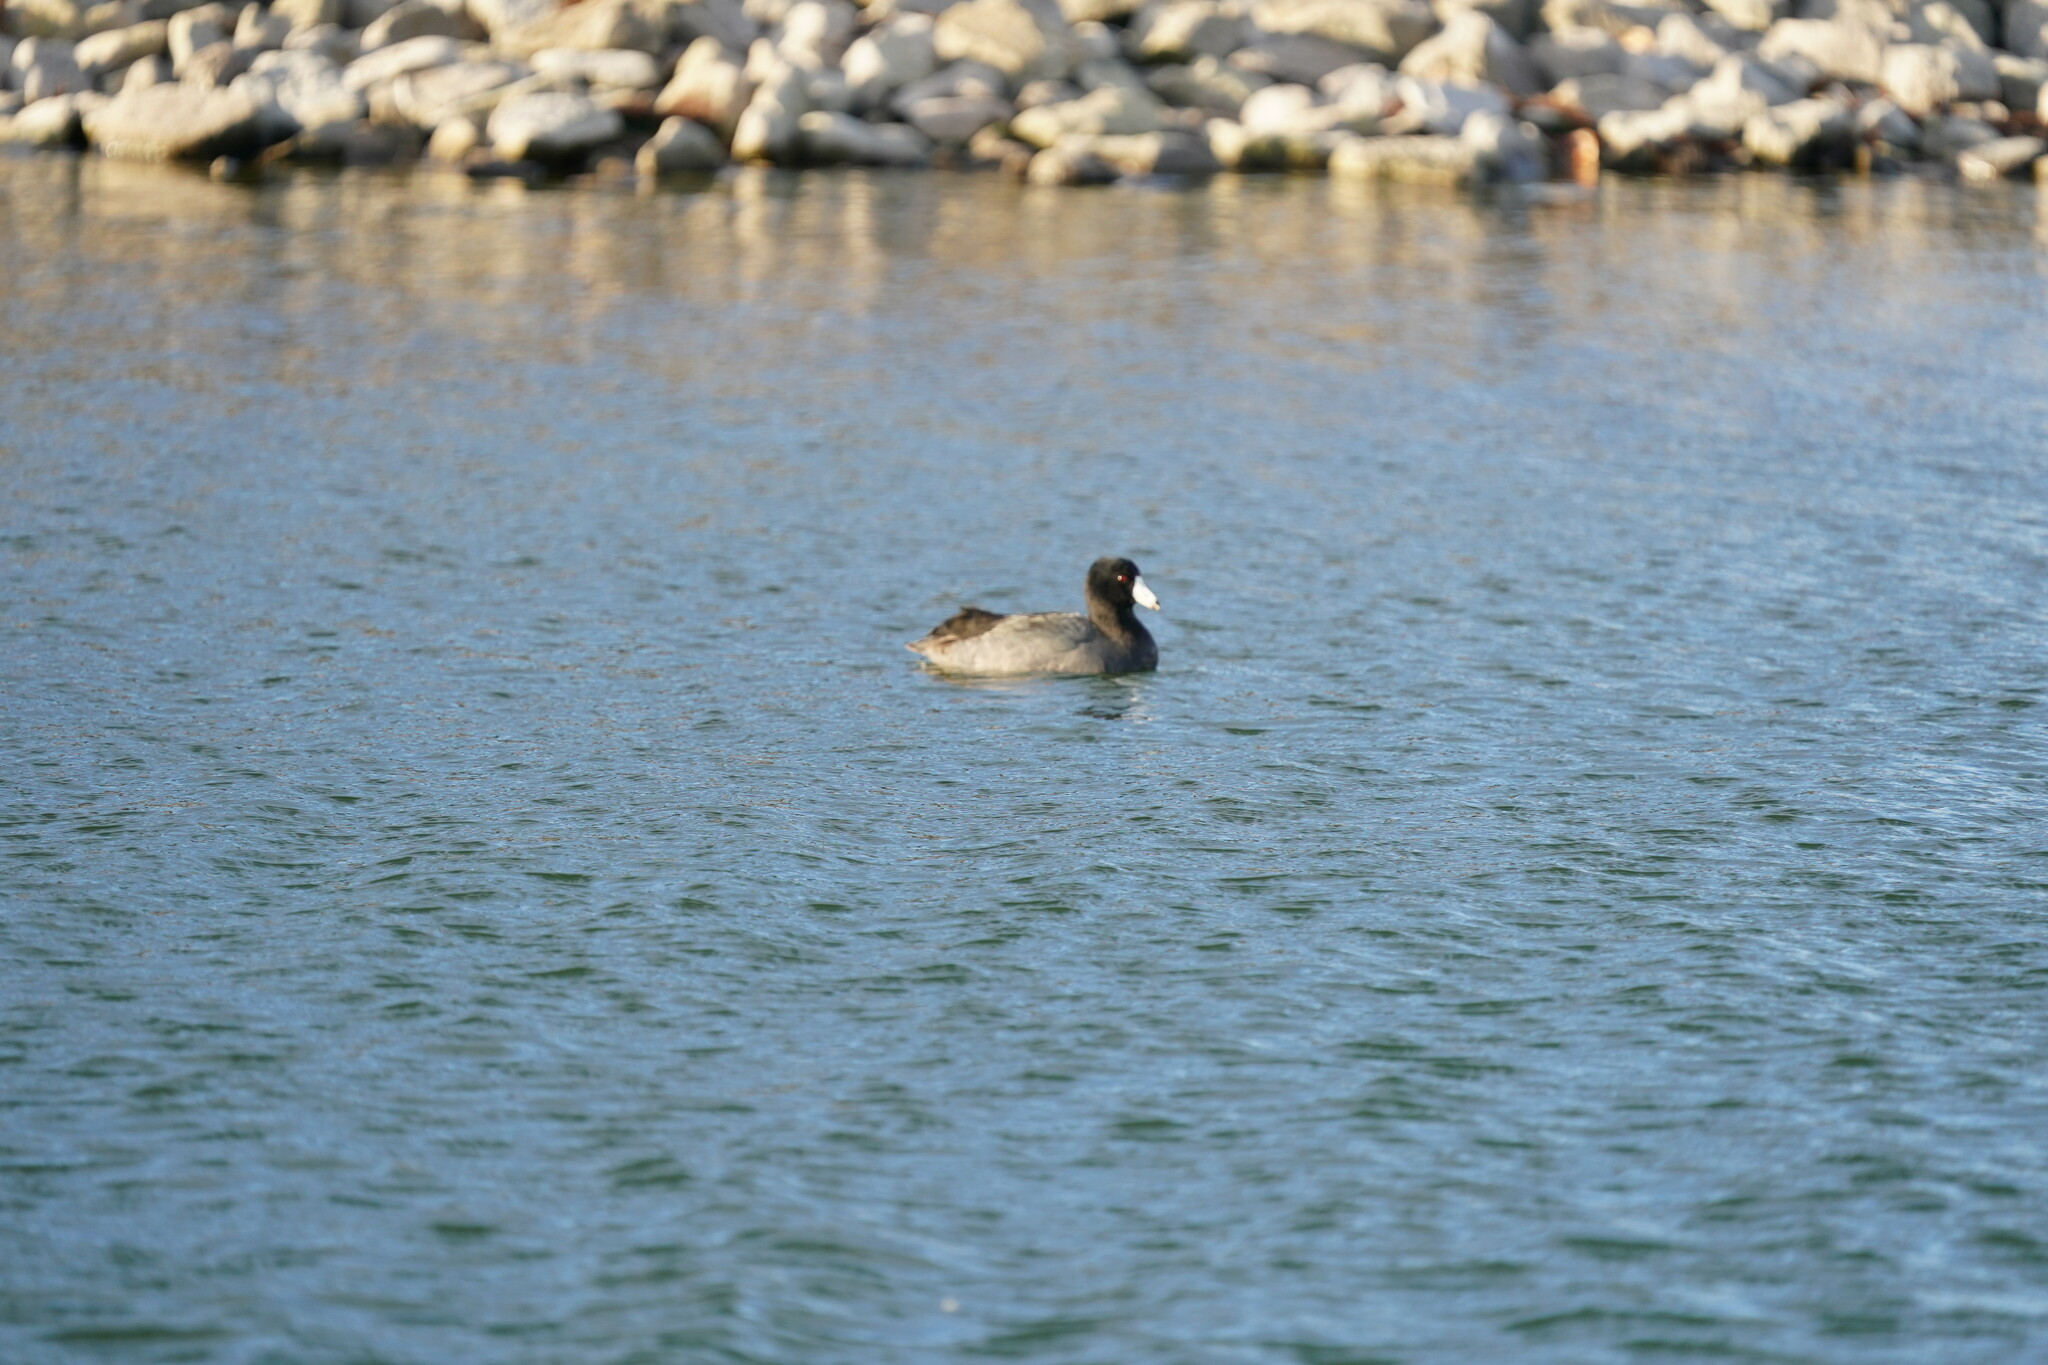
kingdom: Animalia
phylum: Chordata
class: Aves
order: Gruiformes
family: Rallidae
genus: Fulica
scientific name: Fulica americana
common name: American coot
